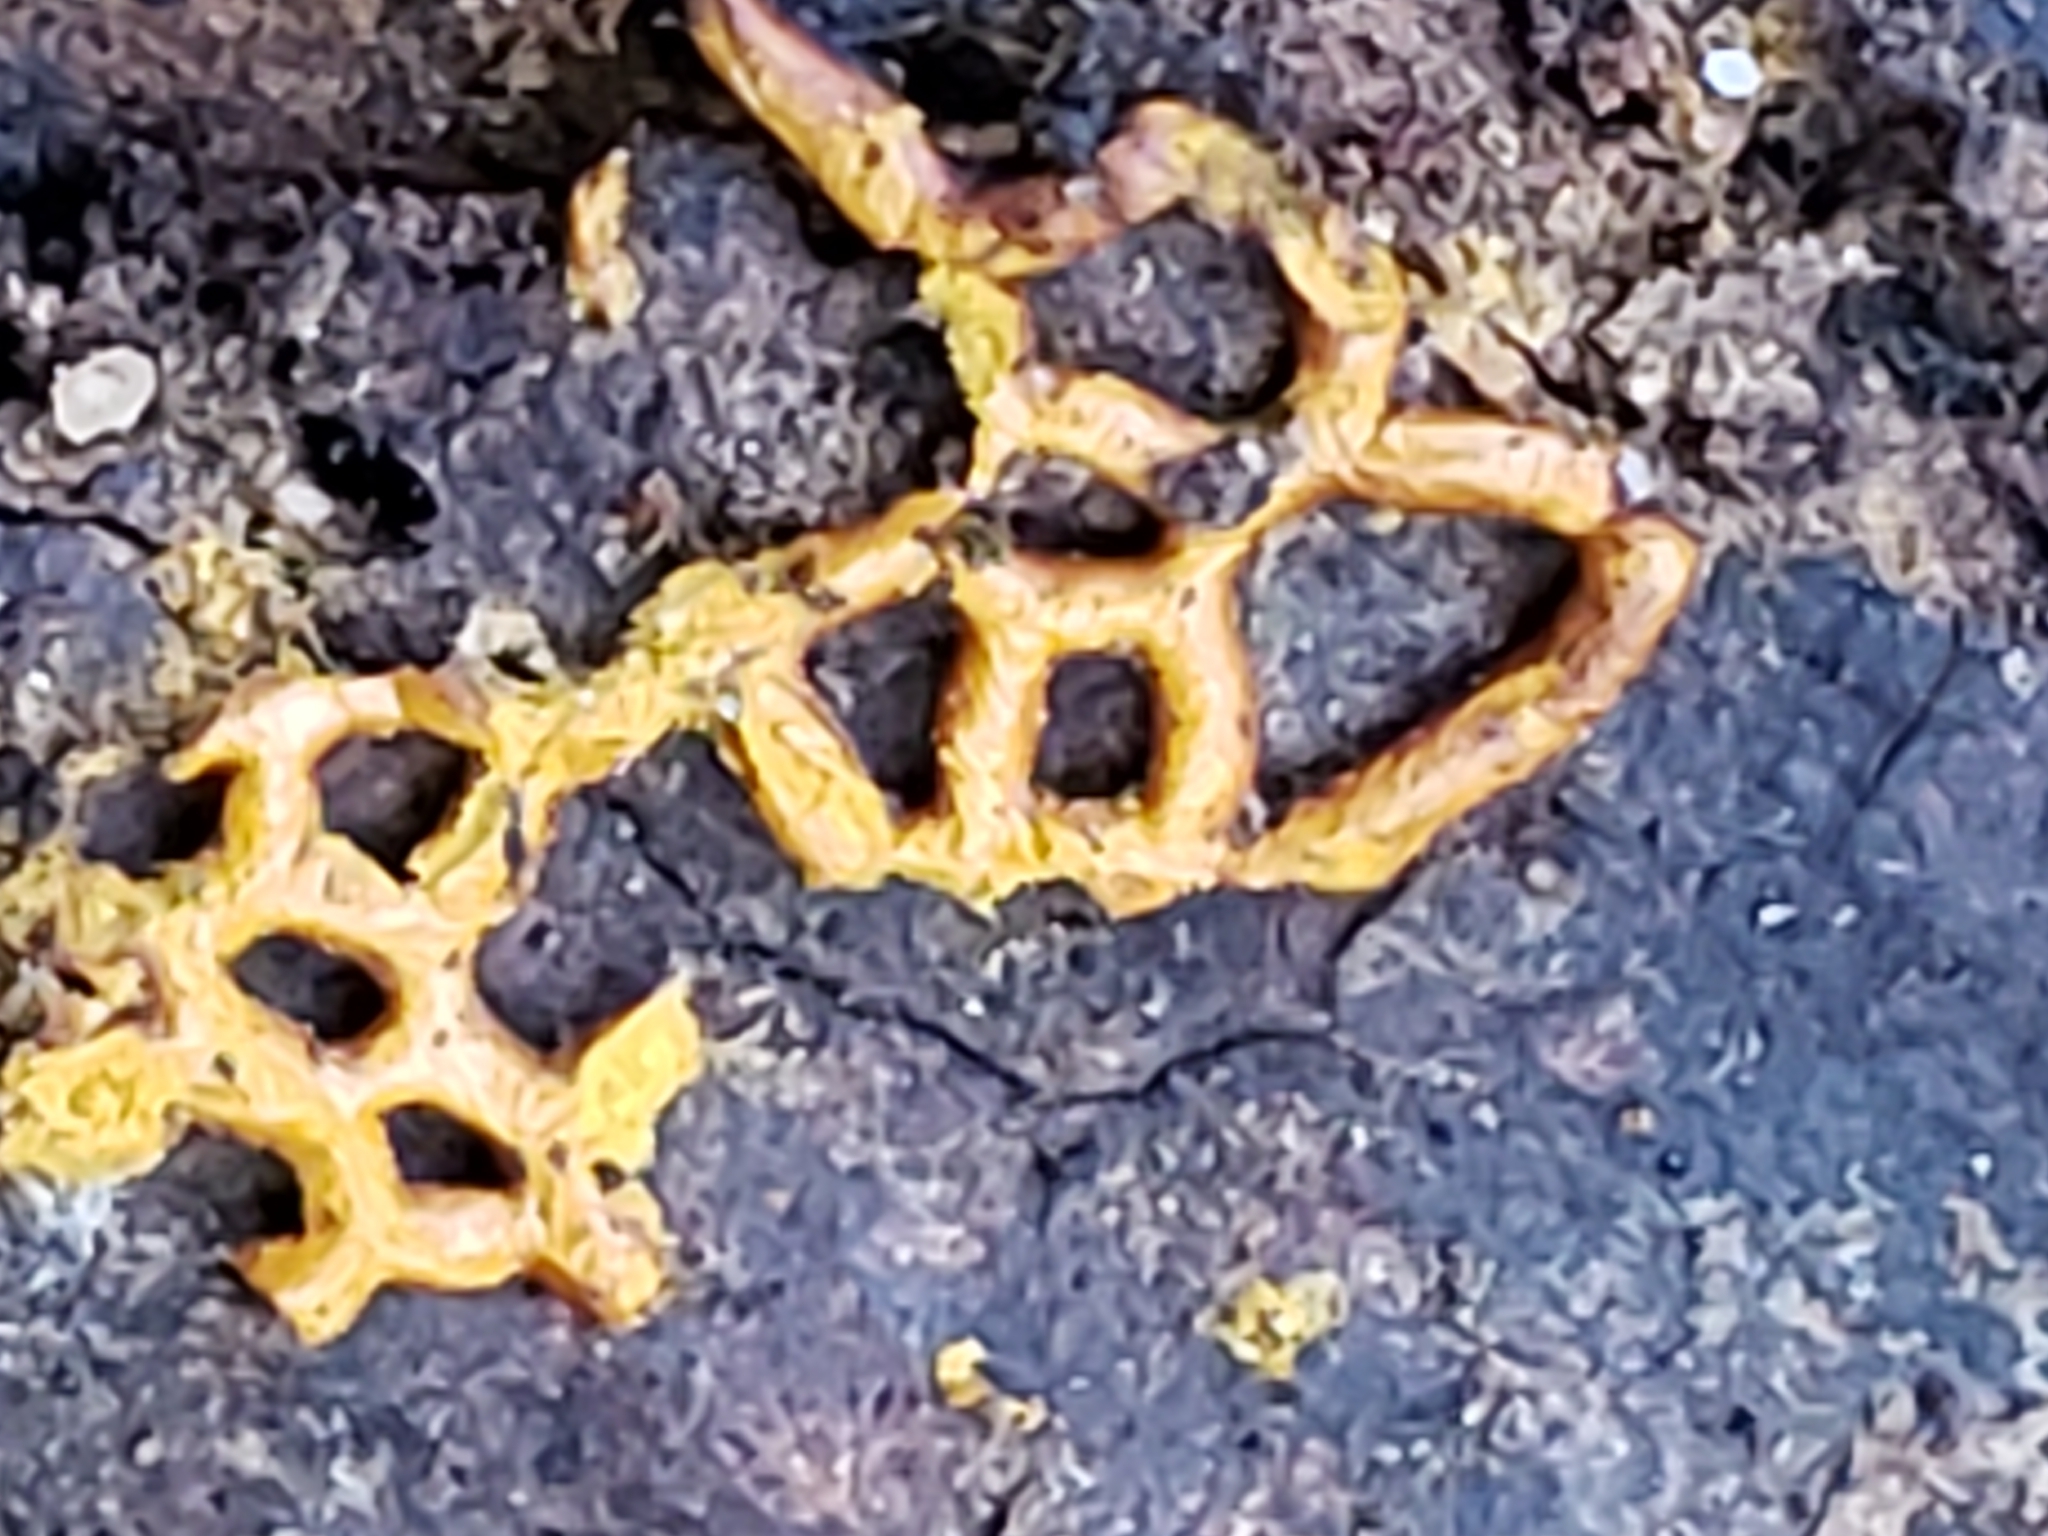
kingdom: Protozoa
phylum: Mycetozoa
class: Myxomycetes
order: Trichiales
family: Arcyriaceae
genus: Hemitrichia
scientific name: Hemitrichia serpula
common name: Pretzel slime mold
